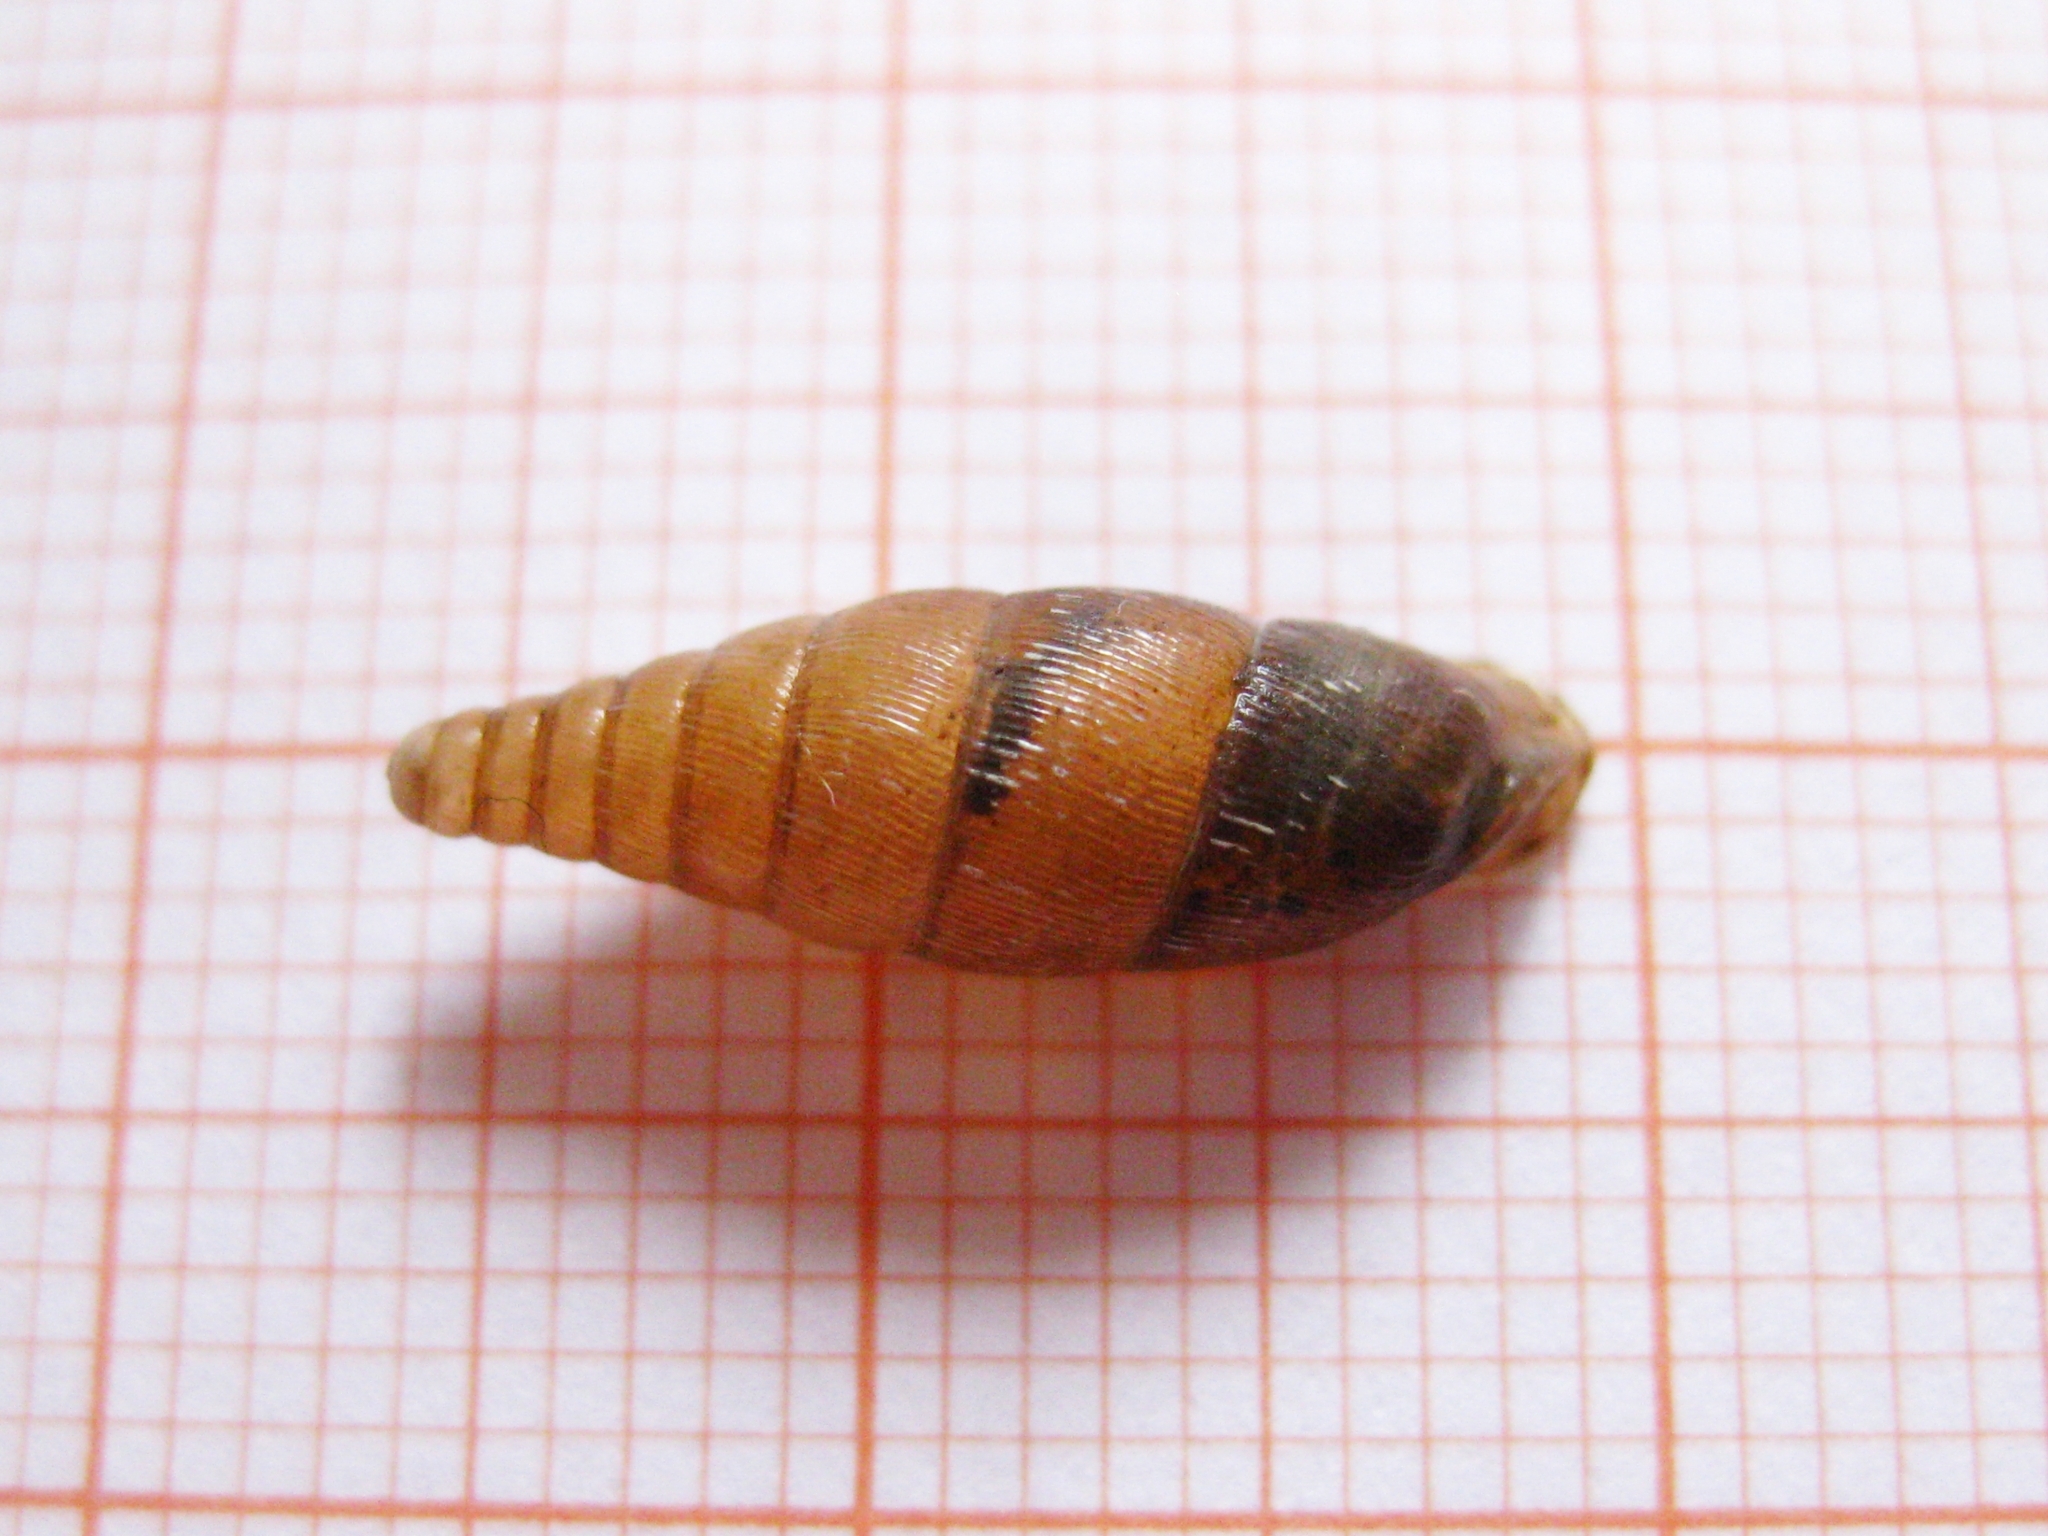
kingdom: Animalia
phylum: Mollusca
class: Gastropoda
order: Stylommatophora
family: Clausiliidae
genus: Elia
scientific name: Elia somchetica
